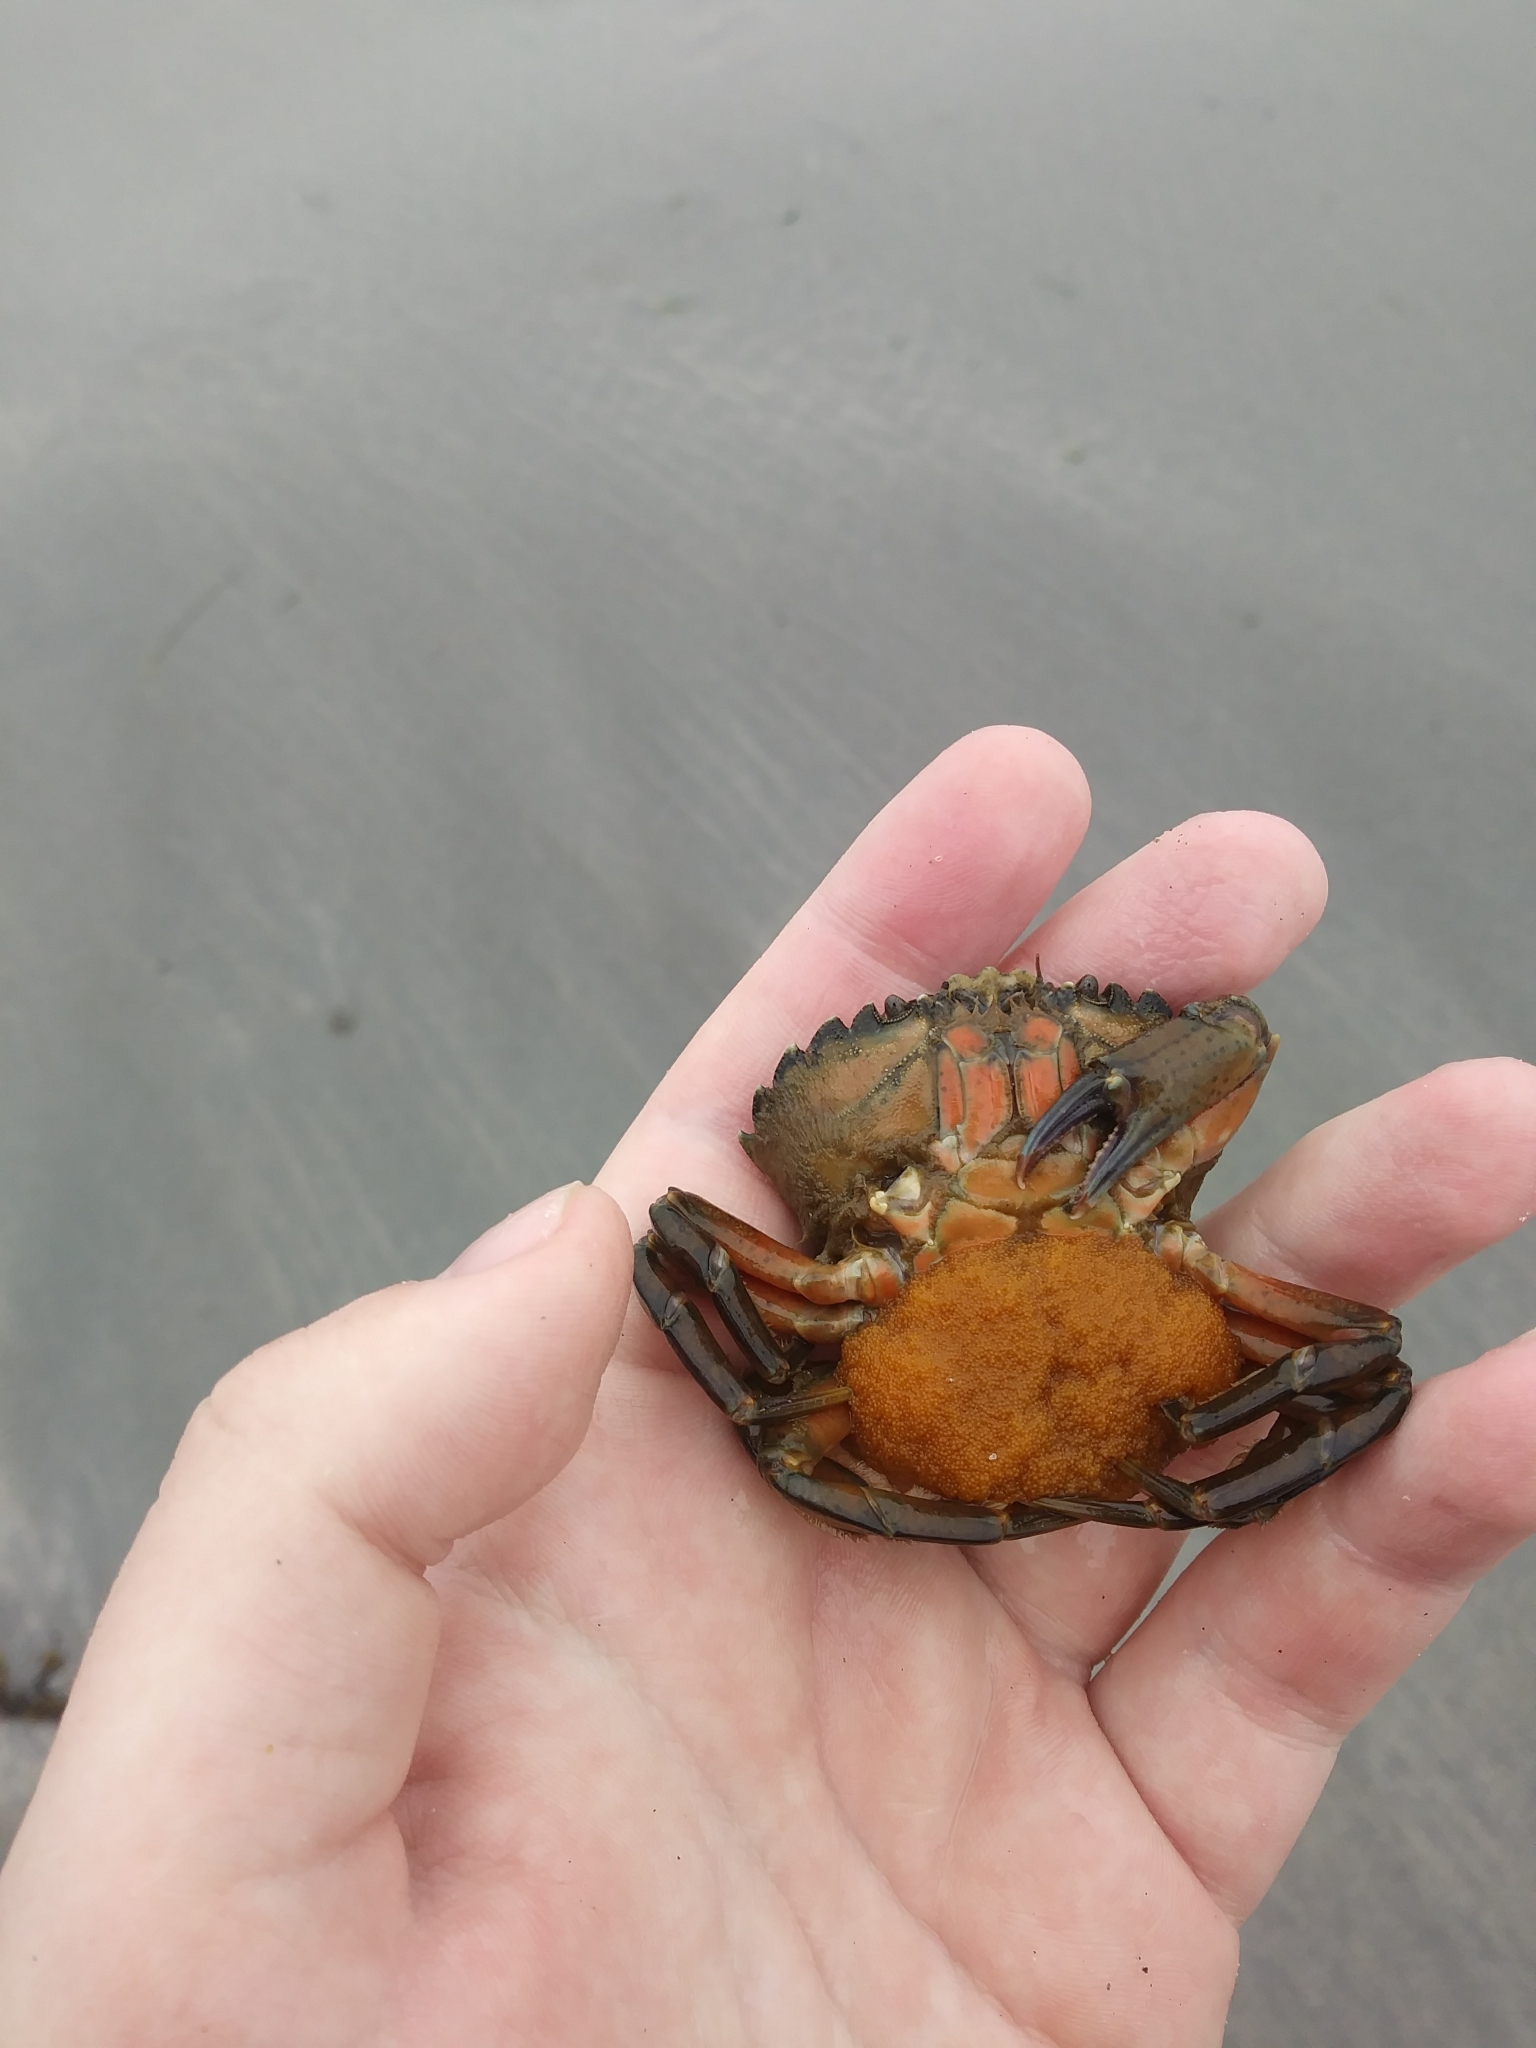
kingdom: Animalia
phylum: Arthropoda
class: Malacostraca
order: Decapoda
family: Carcinidae
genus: Carcinus
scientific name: Carcinus maenas
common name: European green crab
